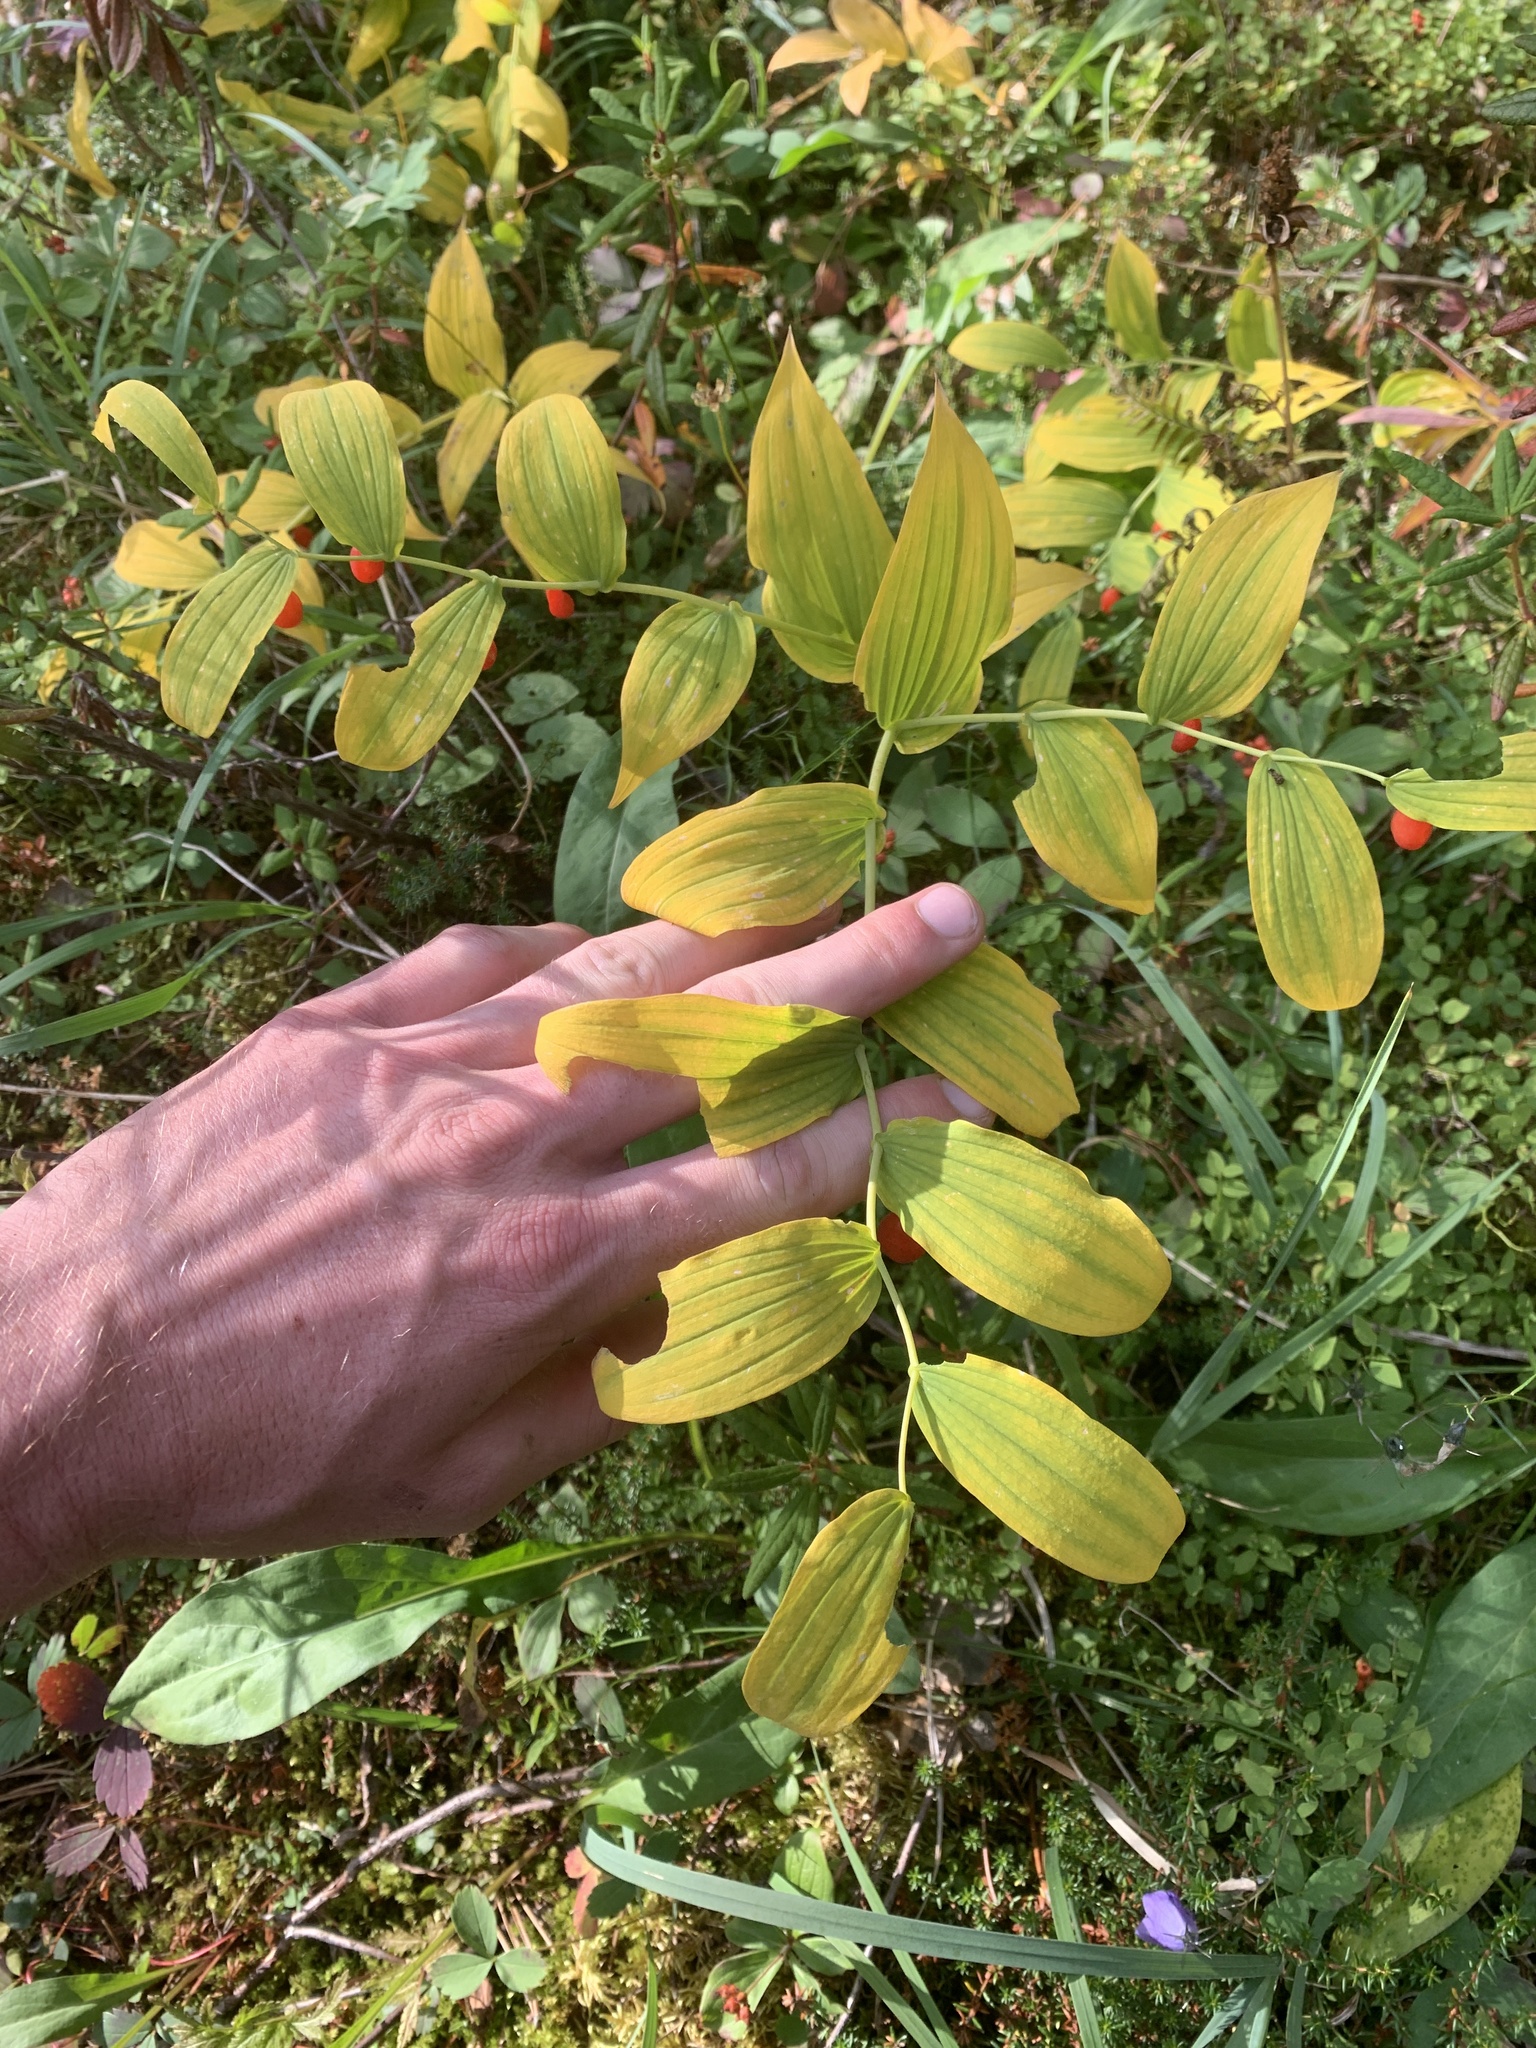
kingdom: Plantae
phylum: Tracheophyta
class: Liliopsida
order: Liliales
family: Liliaceae
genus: Streptopus
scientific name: Streptopus amplexifolius
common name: Clasp twisted stalk
